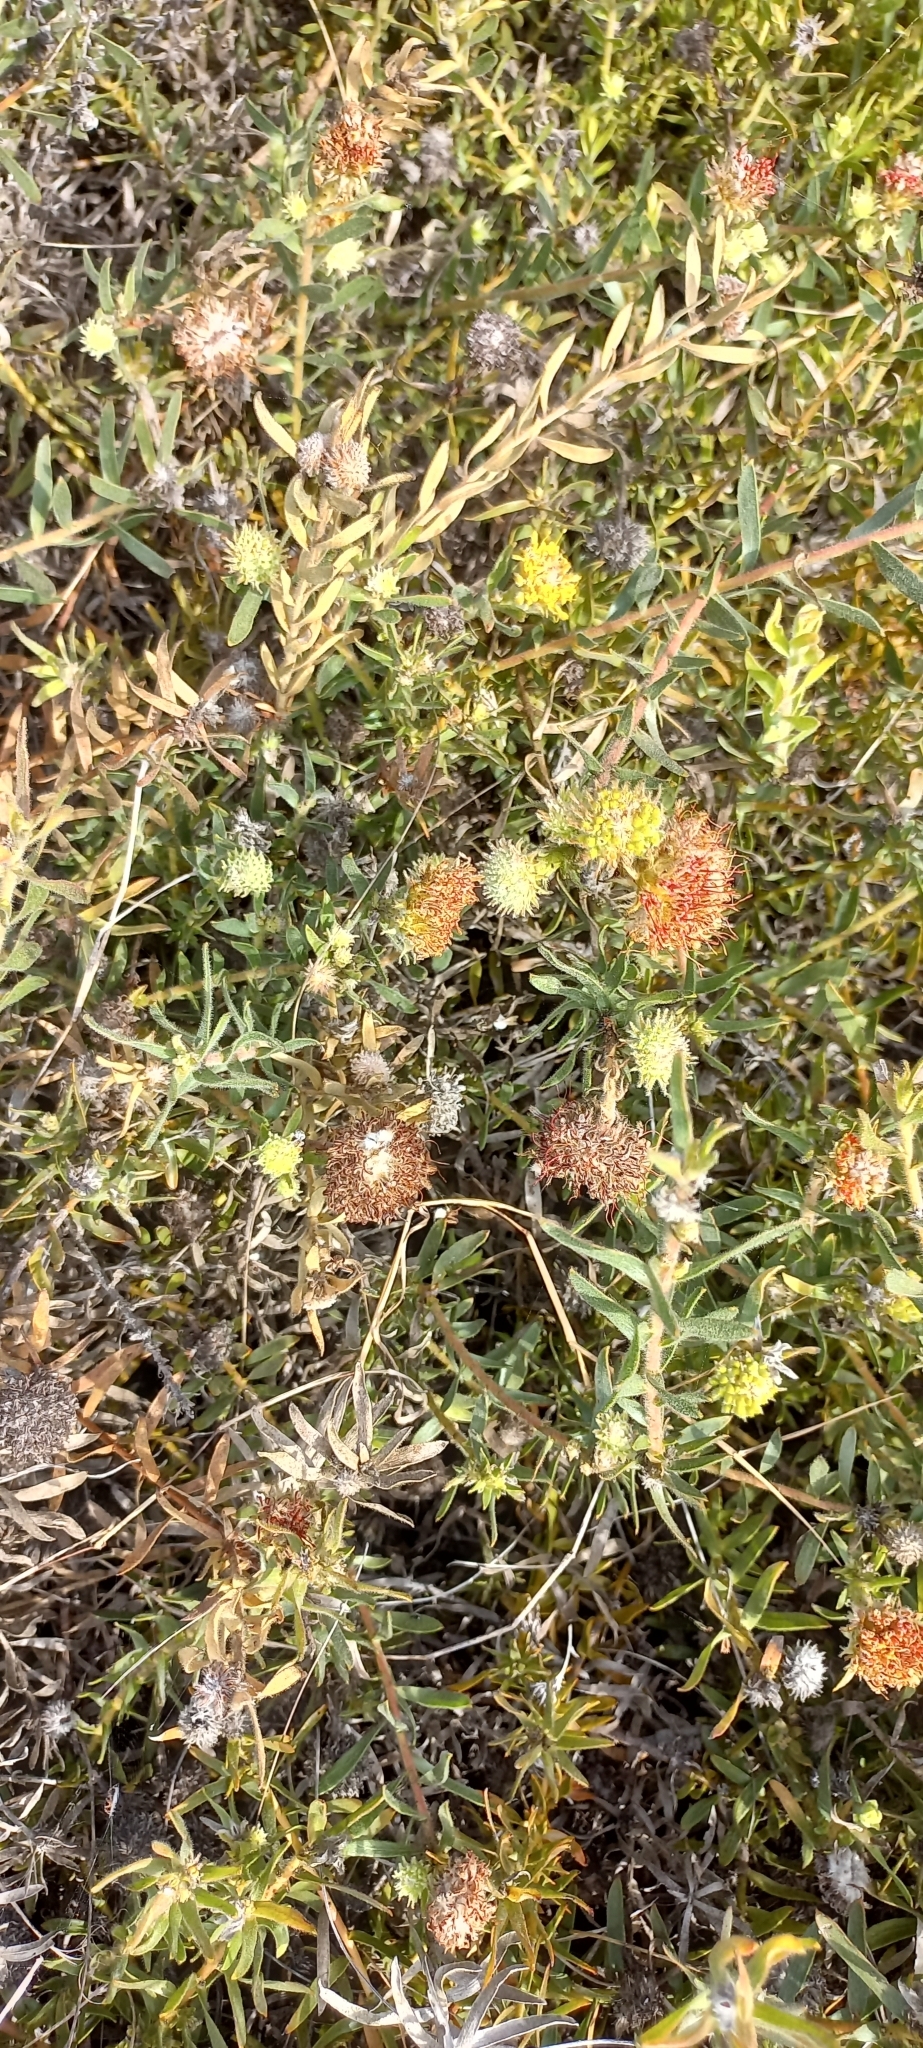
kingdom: Plantae
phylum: Tracheophyta
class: Magnoliopsida
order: Proteales
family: Proteaceae
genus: Leucospermum
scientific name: Leucospermum prostratum
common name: Yellow-trailing pincushion
